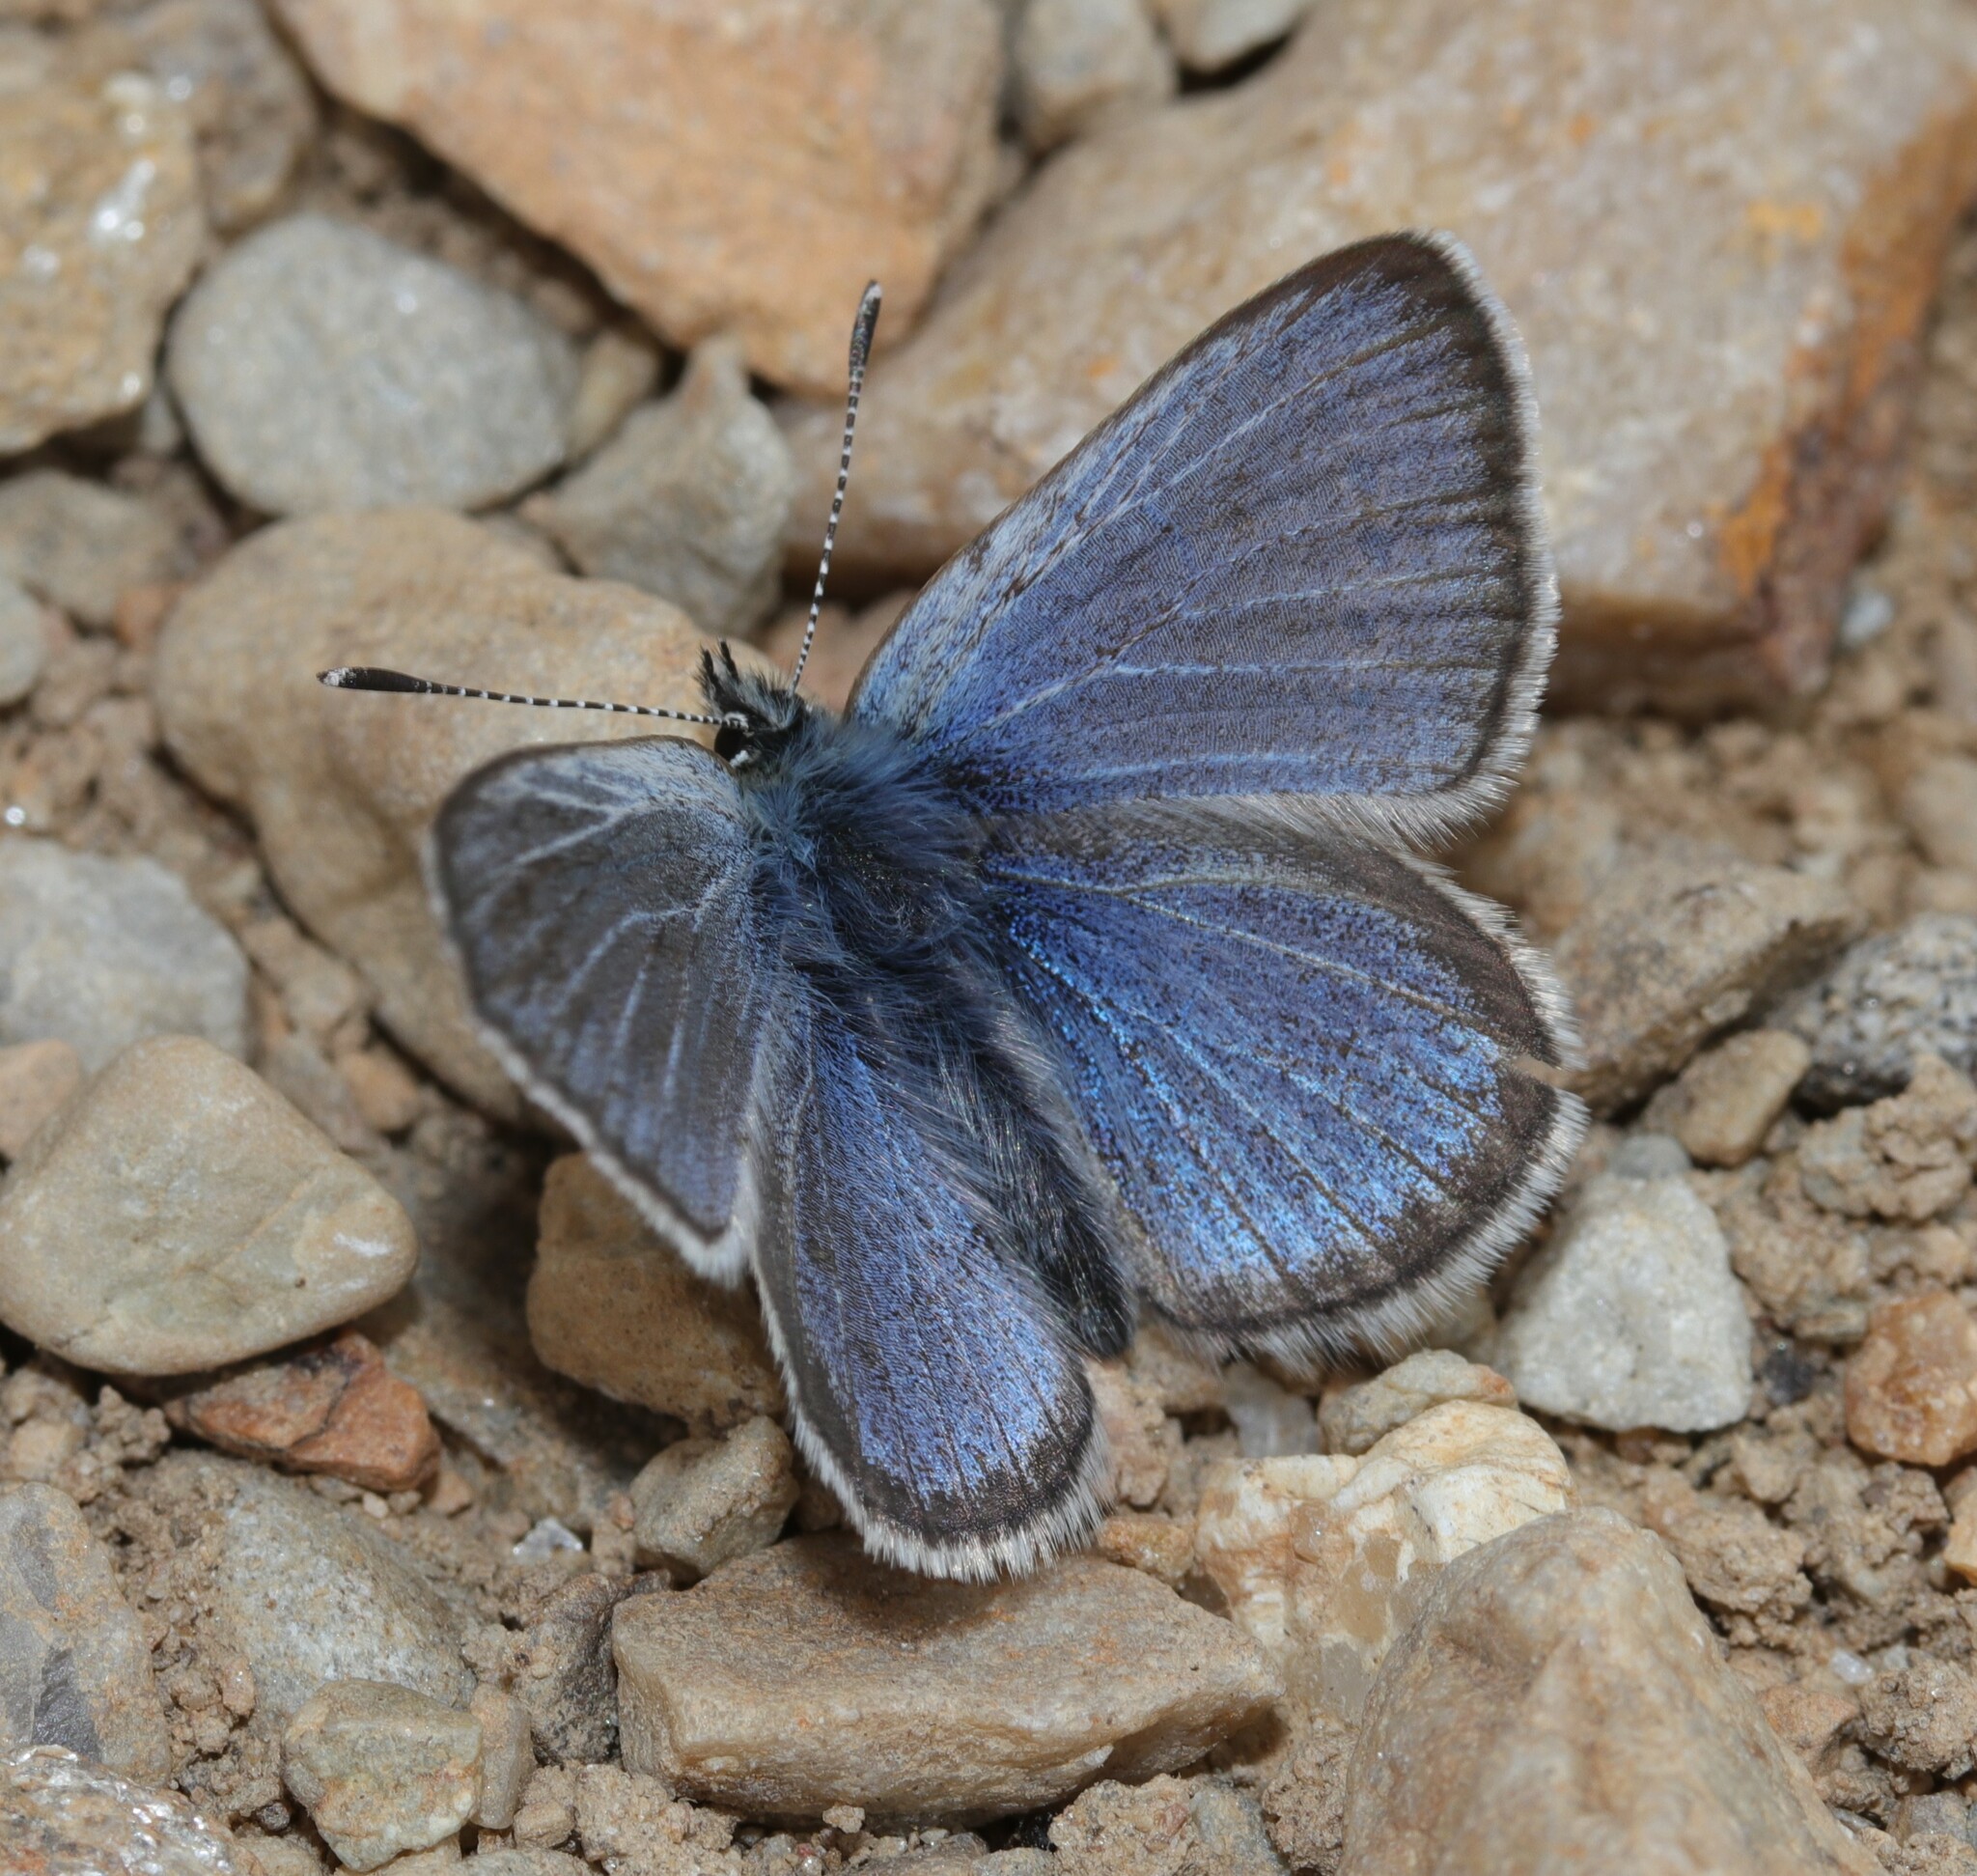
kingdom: Animalia
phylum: Arthropoda
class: Insecta
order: Lepidoptera
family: Lycaenidae
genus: Glaucopsyche
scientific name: Glaucopsyche lygdamus
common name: Silvery blue
